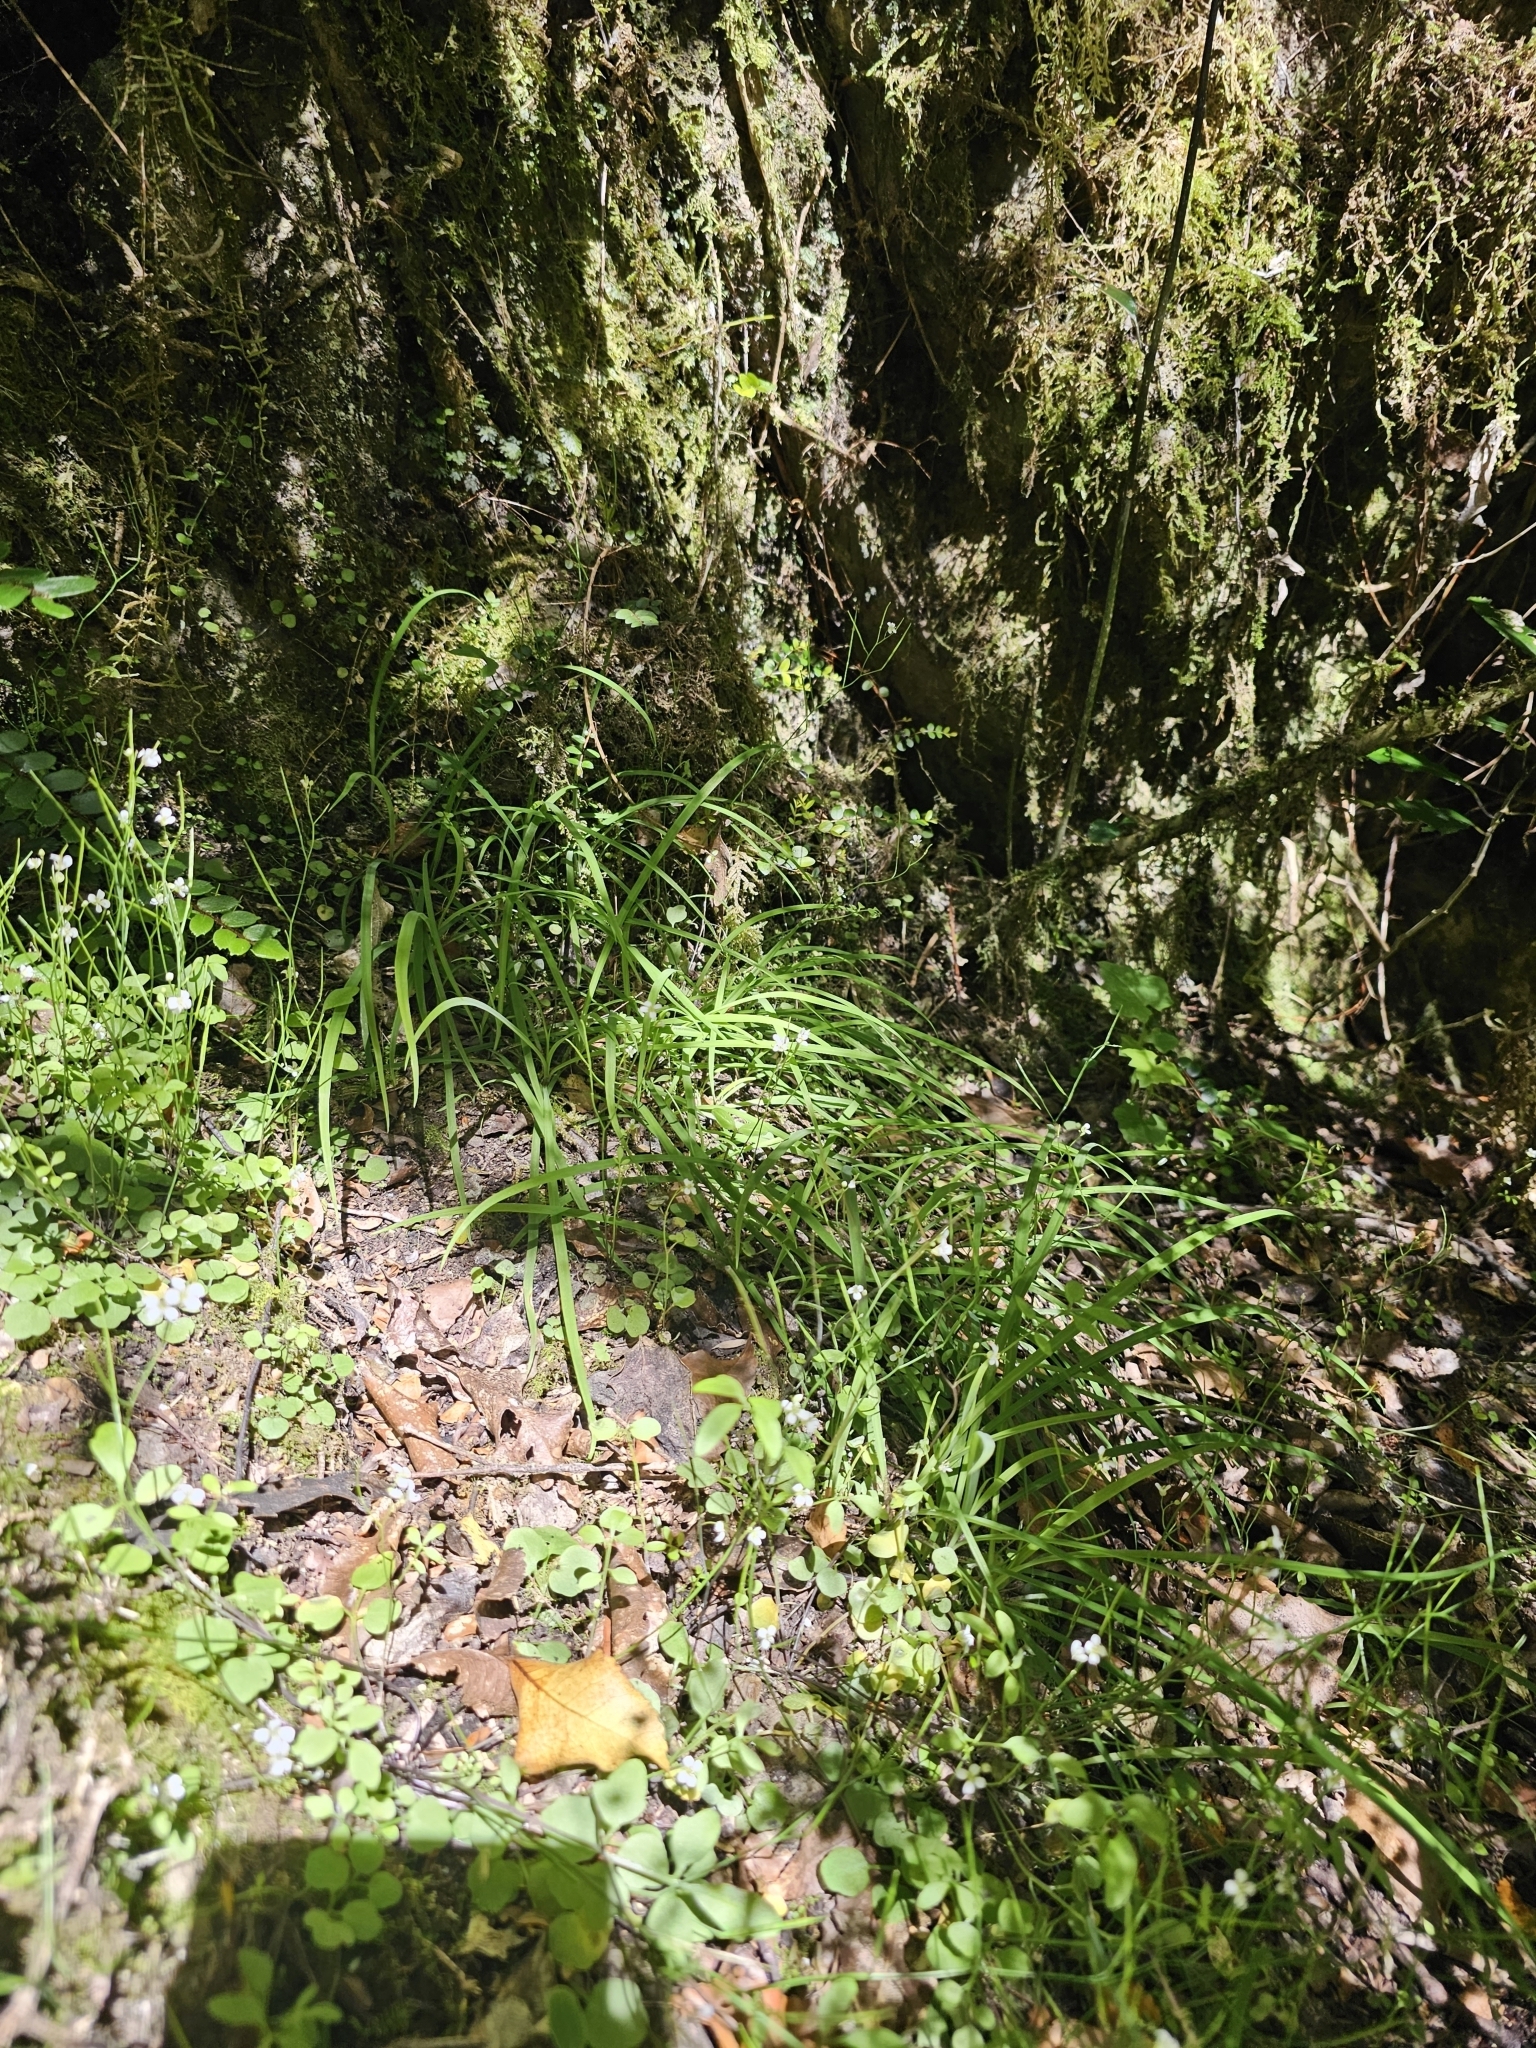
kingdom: Plantae
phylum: Tracheophyta
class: Liliopsida
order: Asparagales
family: Asparagaceae
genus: Arthropodium
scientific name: Arthropodium candidum
